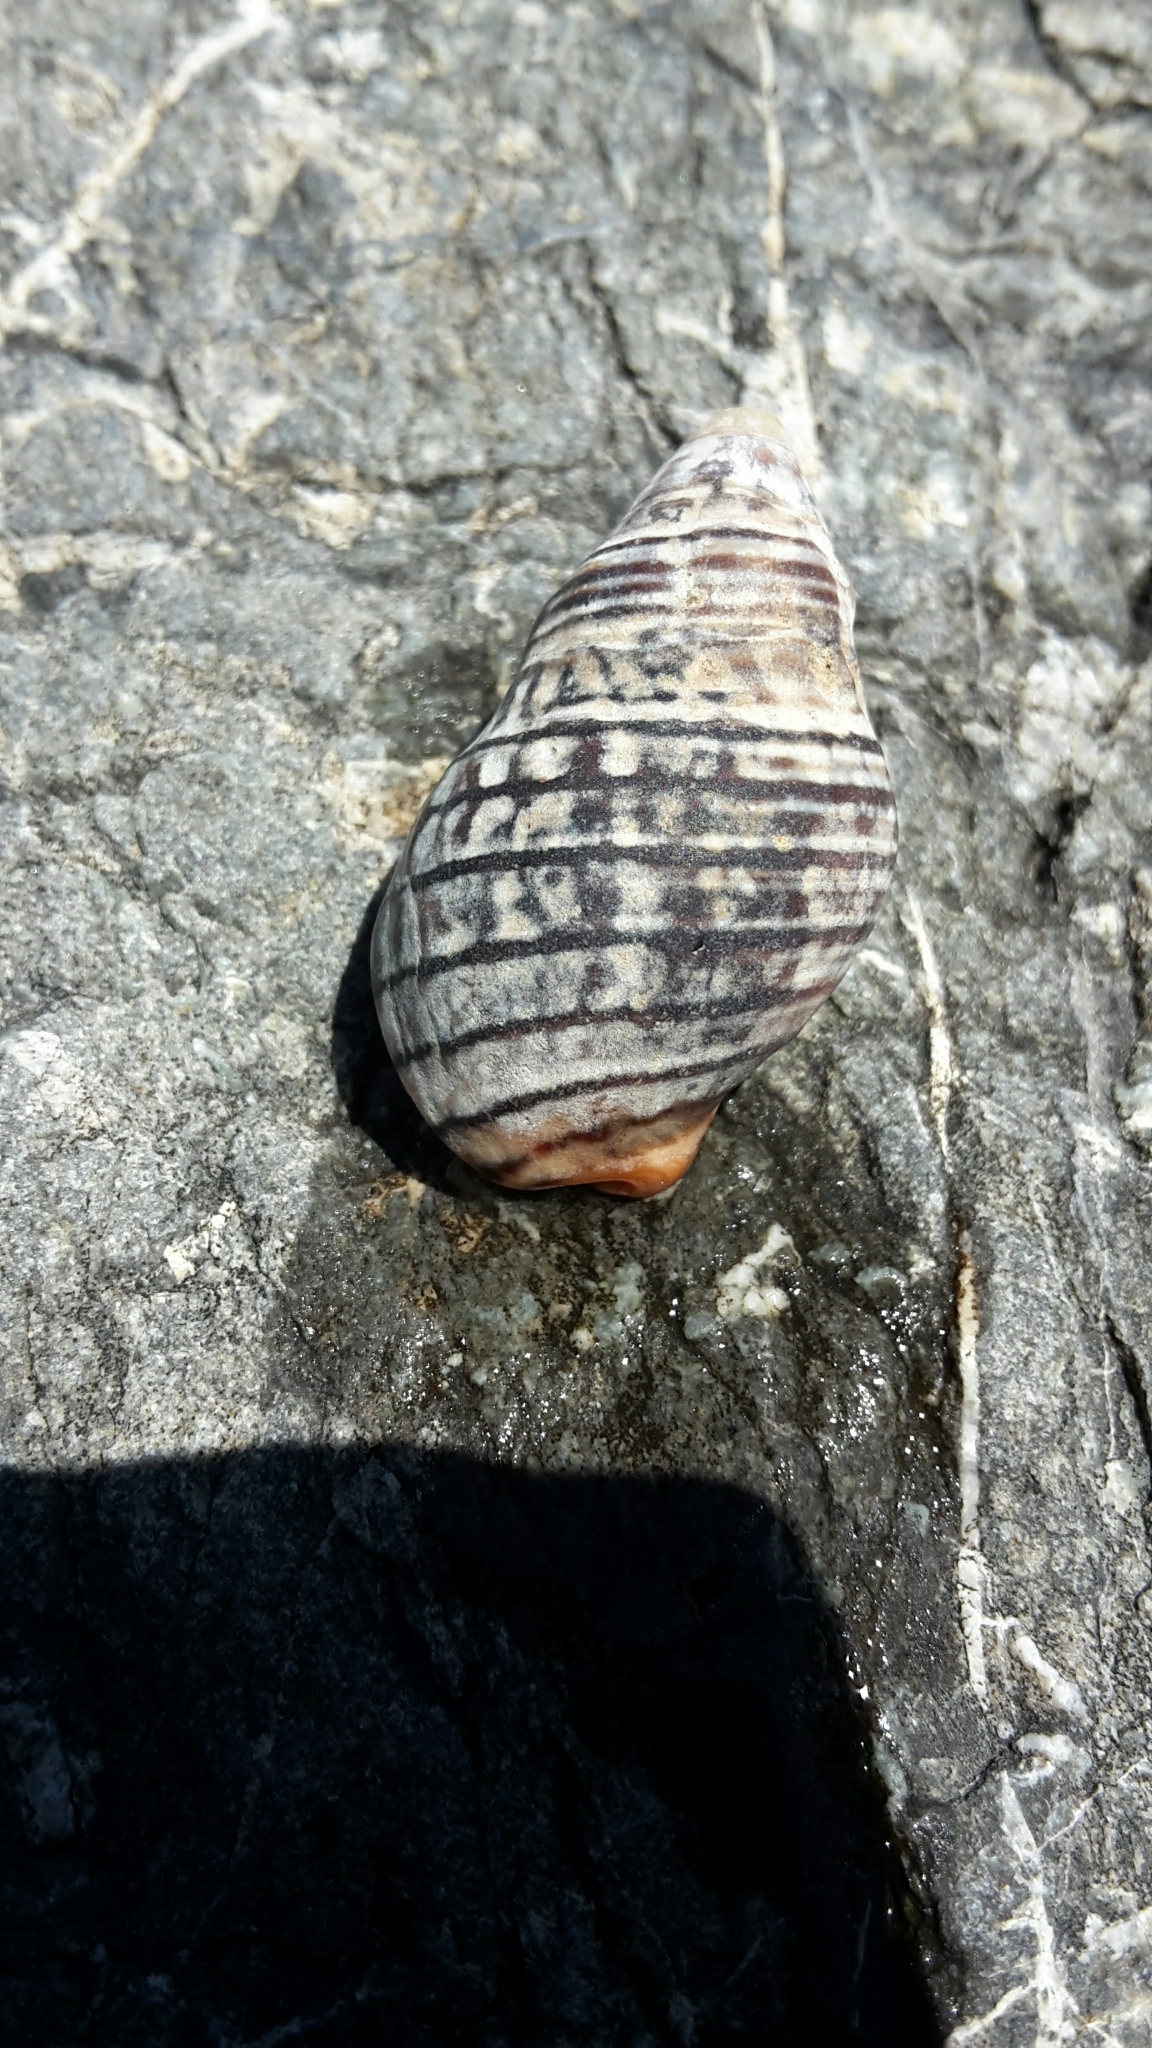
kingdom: Animalia
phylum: Mollusca
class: Gastropoda
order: Neogastropoda
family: Cominellidae
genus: Cominella
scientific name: Cominella virgata
